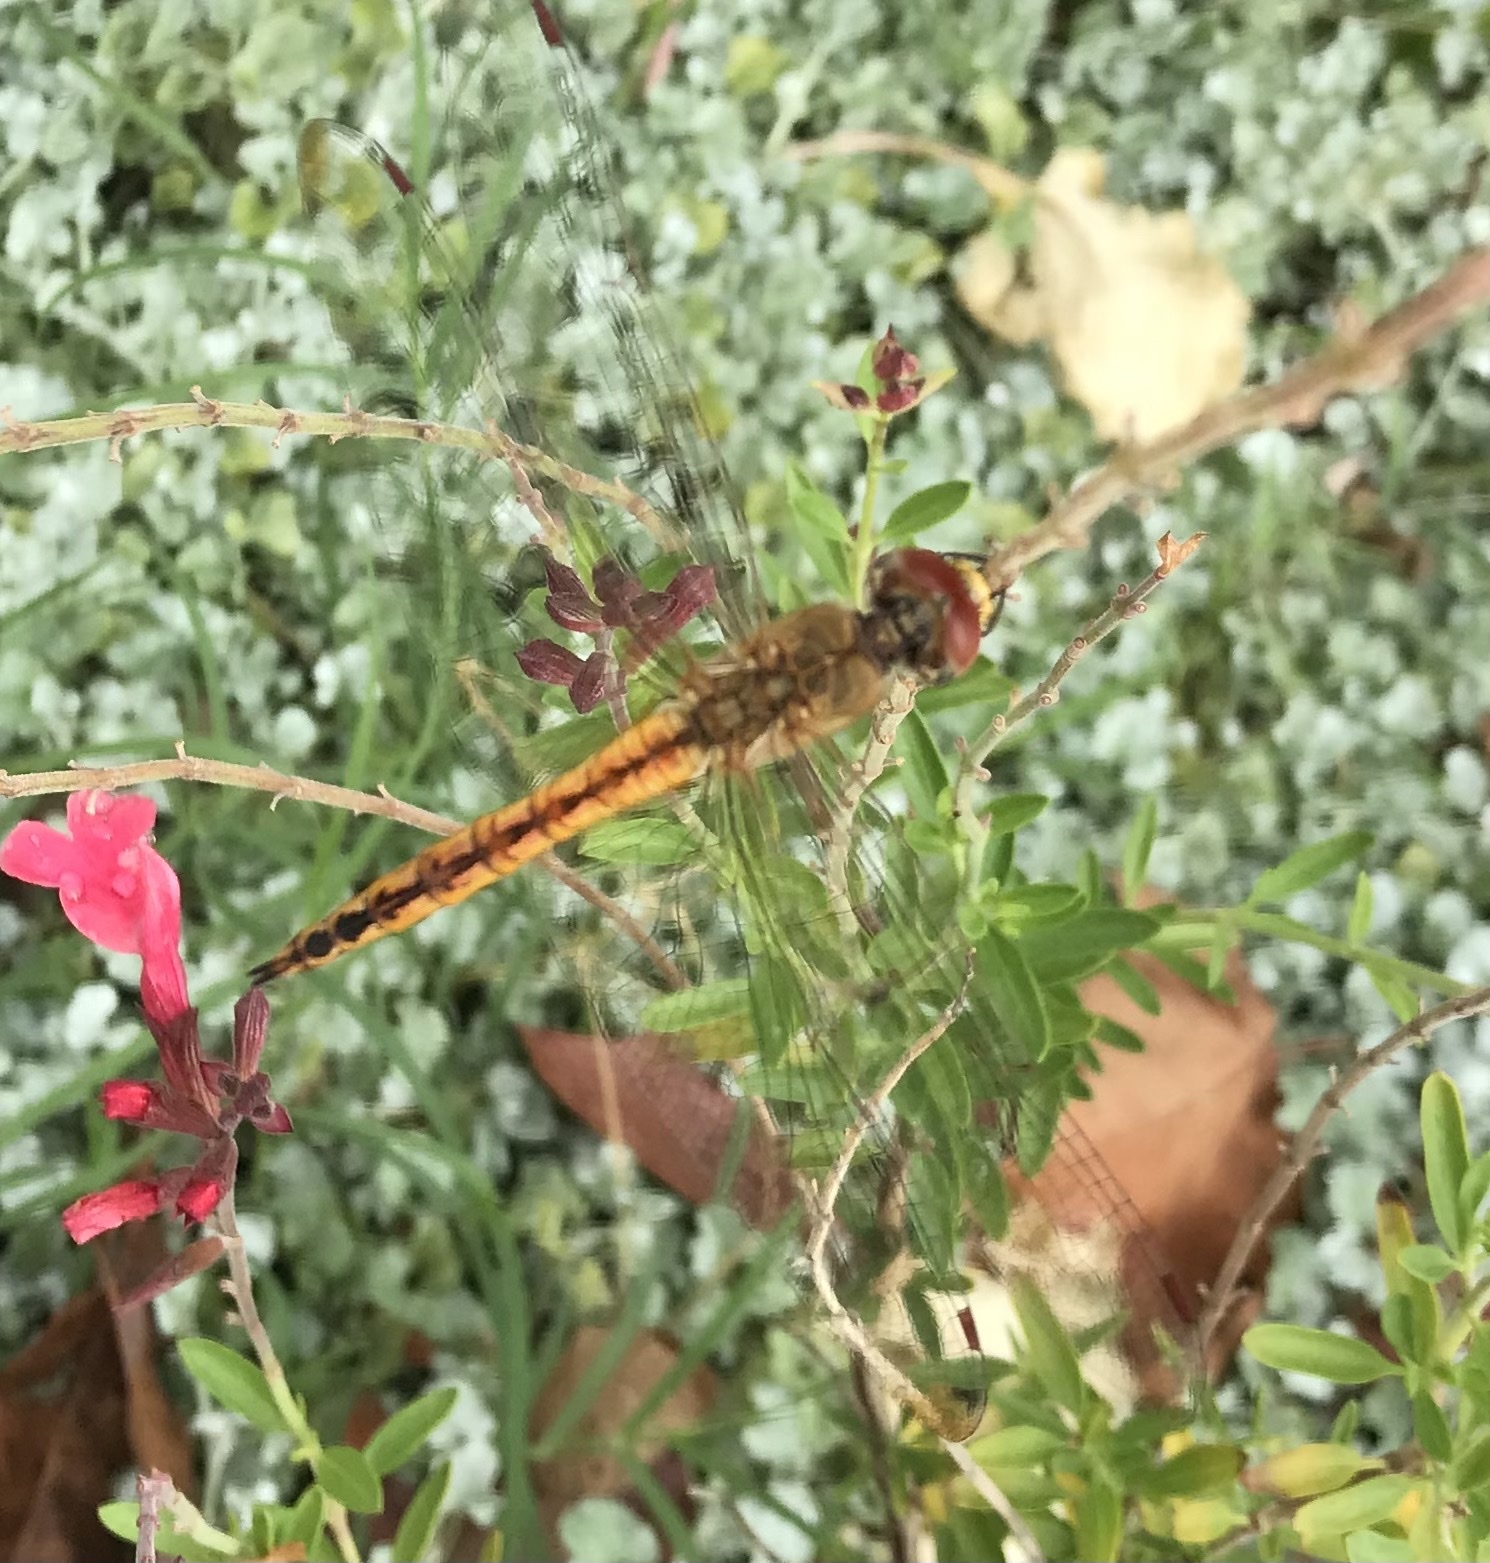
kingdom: Animalia
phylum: Arthropoda
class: Insecta
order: Odonata
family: Libellulidae
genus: Pantala
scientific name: Pantala flavescens
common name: Wandering glider
